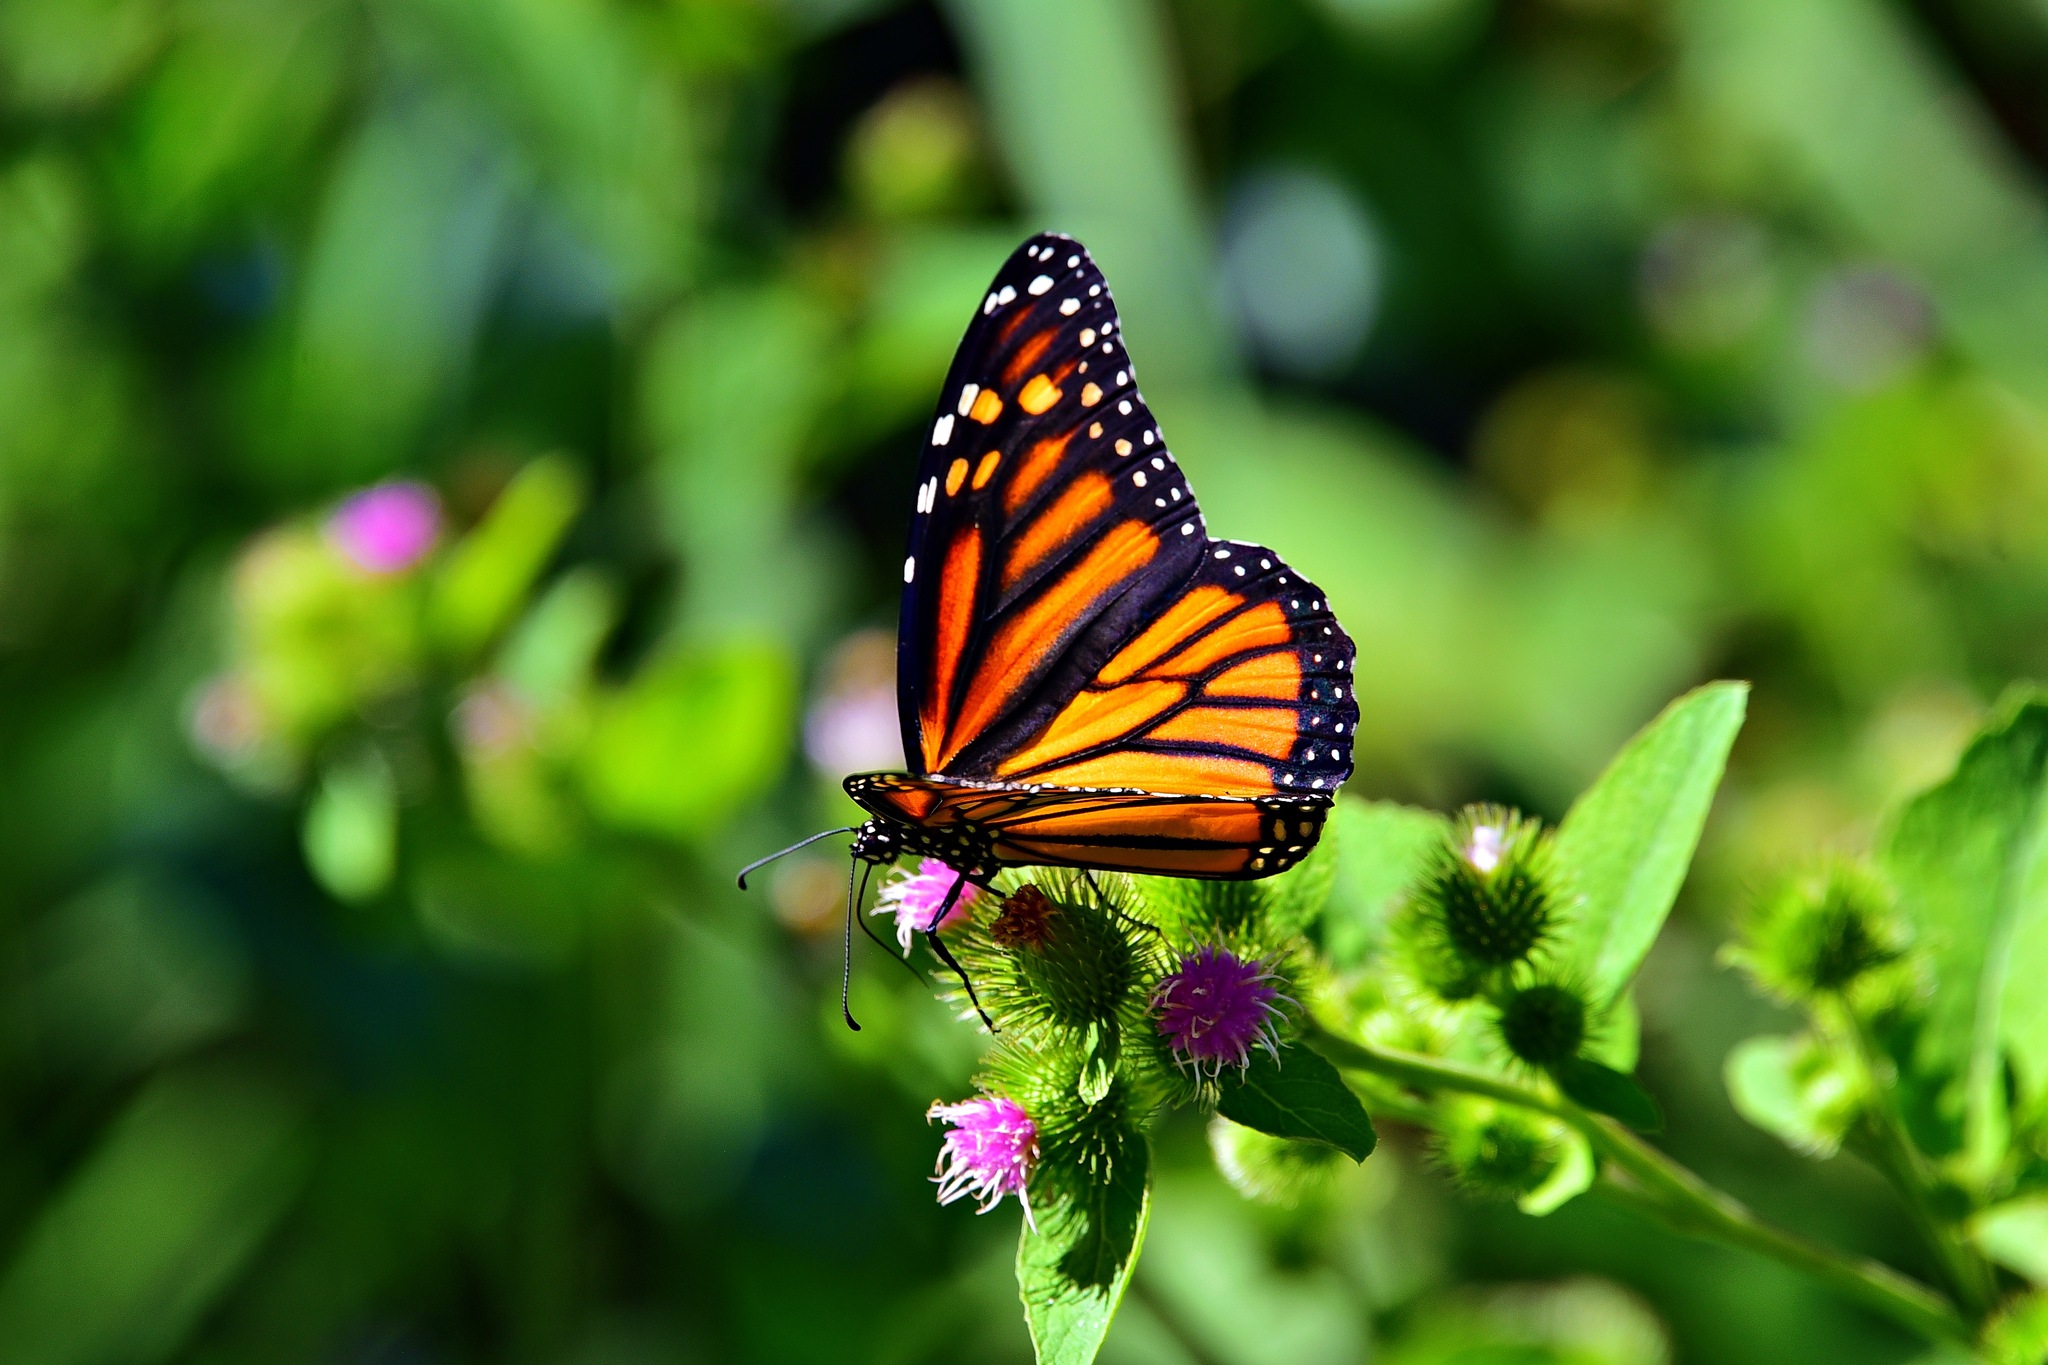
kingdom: Animalia
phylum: Arthropoda
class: Insecta
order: Lepidoptera
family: Nymphalidae
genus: Danaus
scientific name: Danaus plexippus
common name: Monarch
